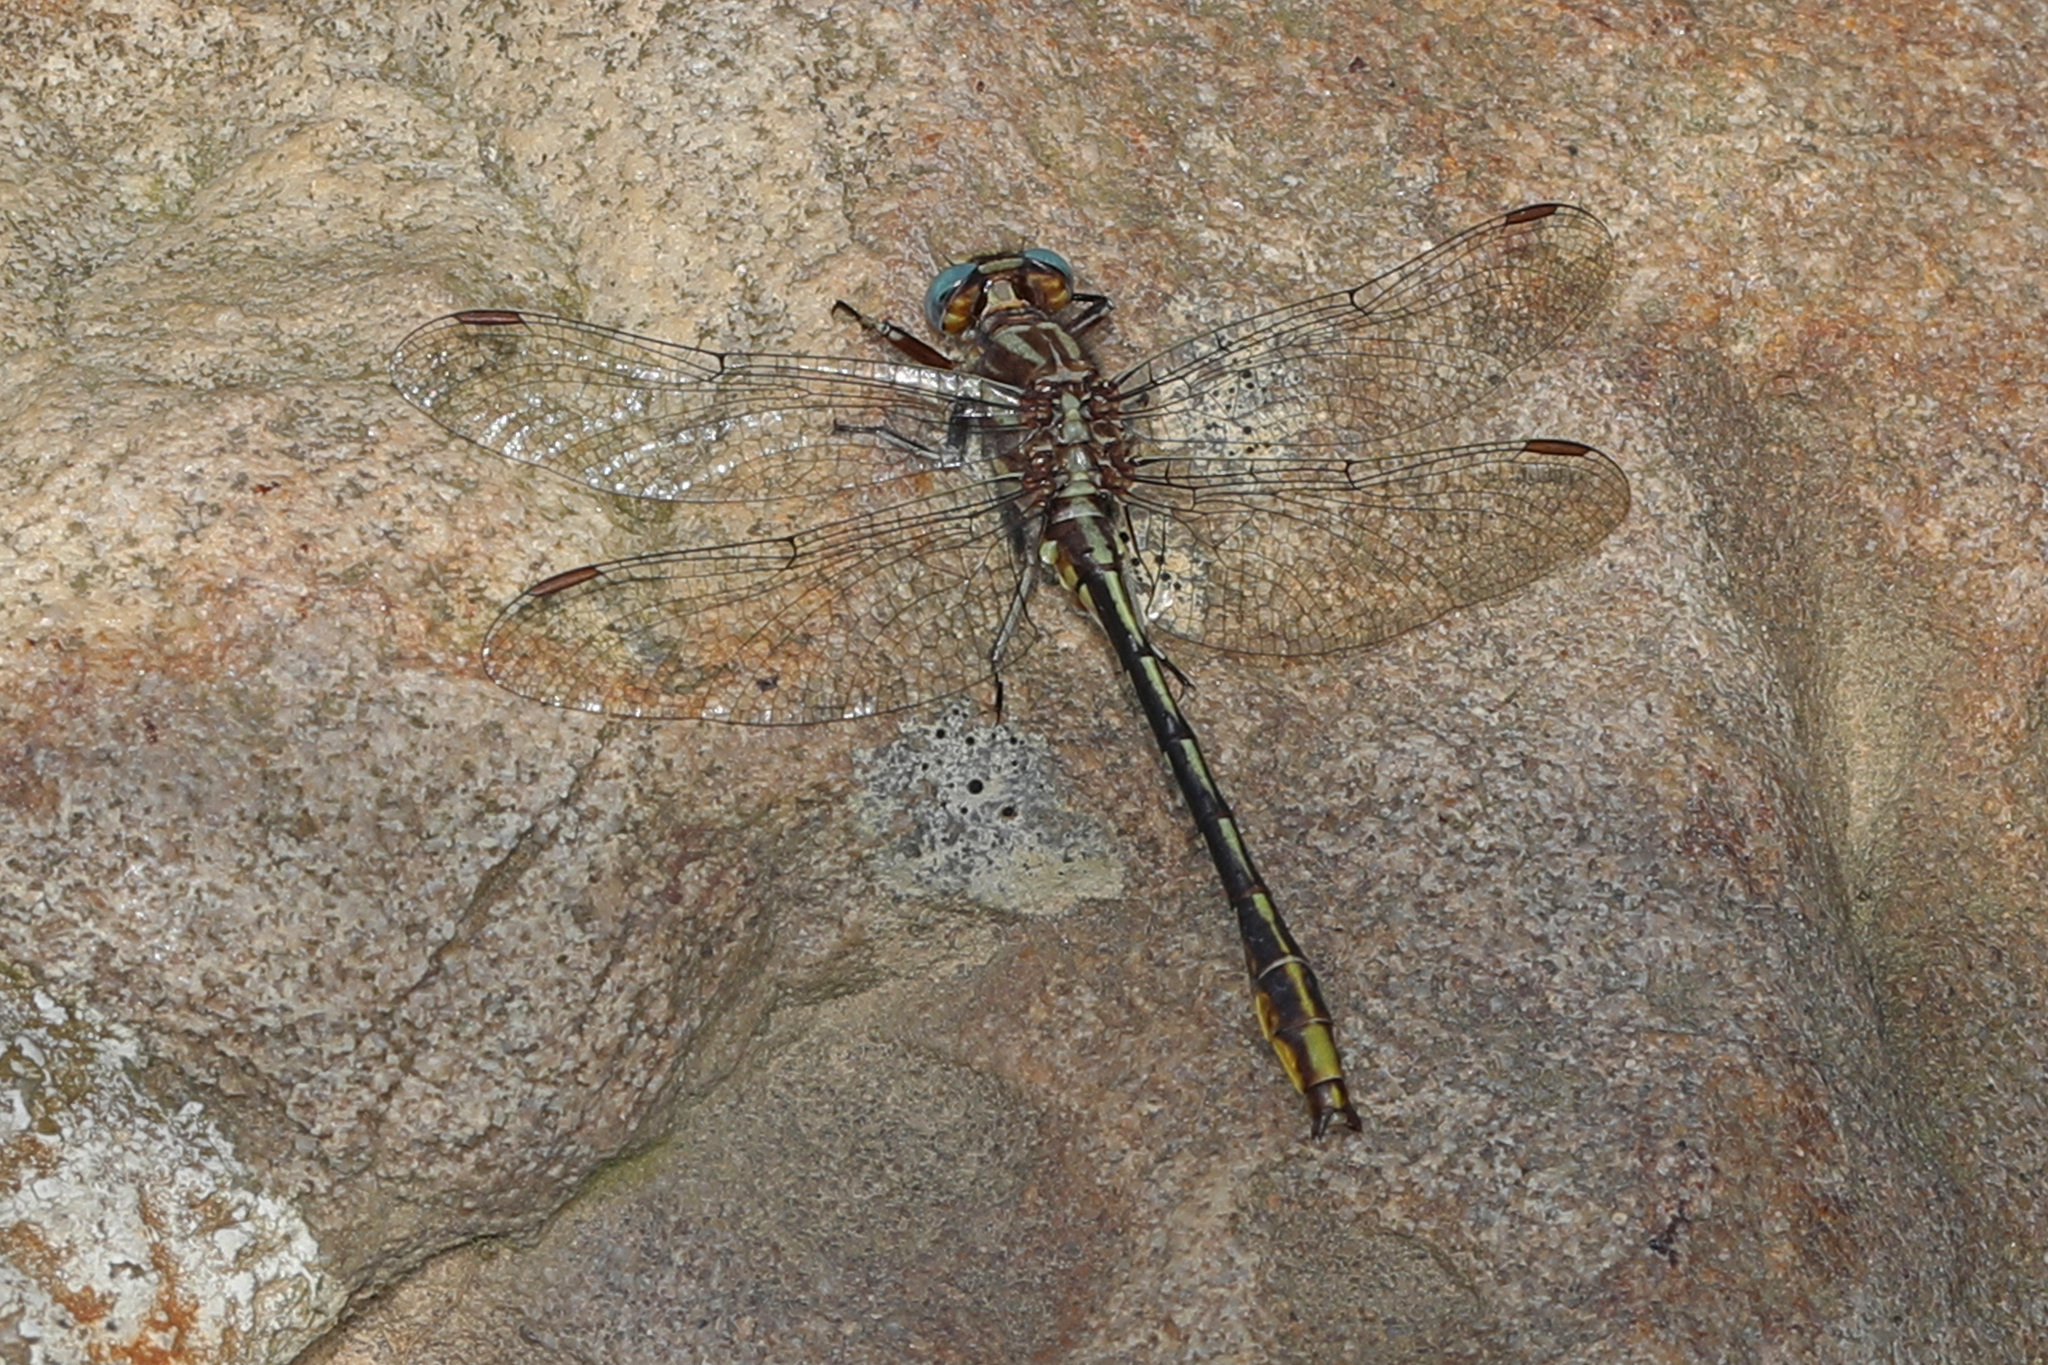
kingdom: Animalia
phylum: Arthropoda
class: Insecta
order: Odonata
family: Gomphidae
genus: Phanogomphus
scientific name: Phanogomphus exilis
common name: Lancet clubtail
